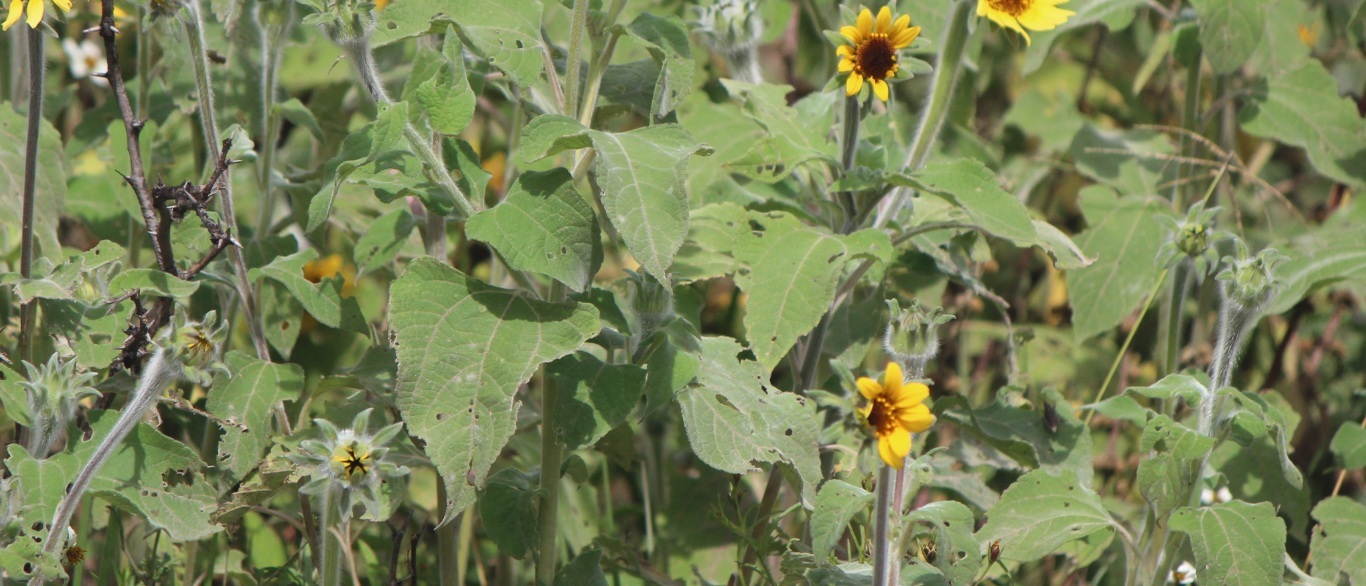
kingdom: Plantae
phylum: Tracheophyta
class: Magnoliopsida
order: Asterales
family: Asteraceae
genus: Tithonia
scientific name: Tithonia tubaeformis
